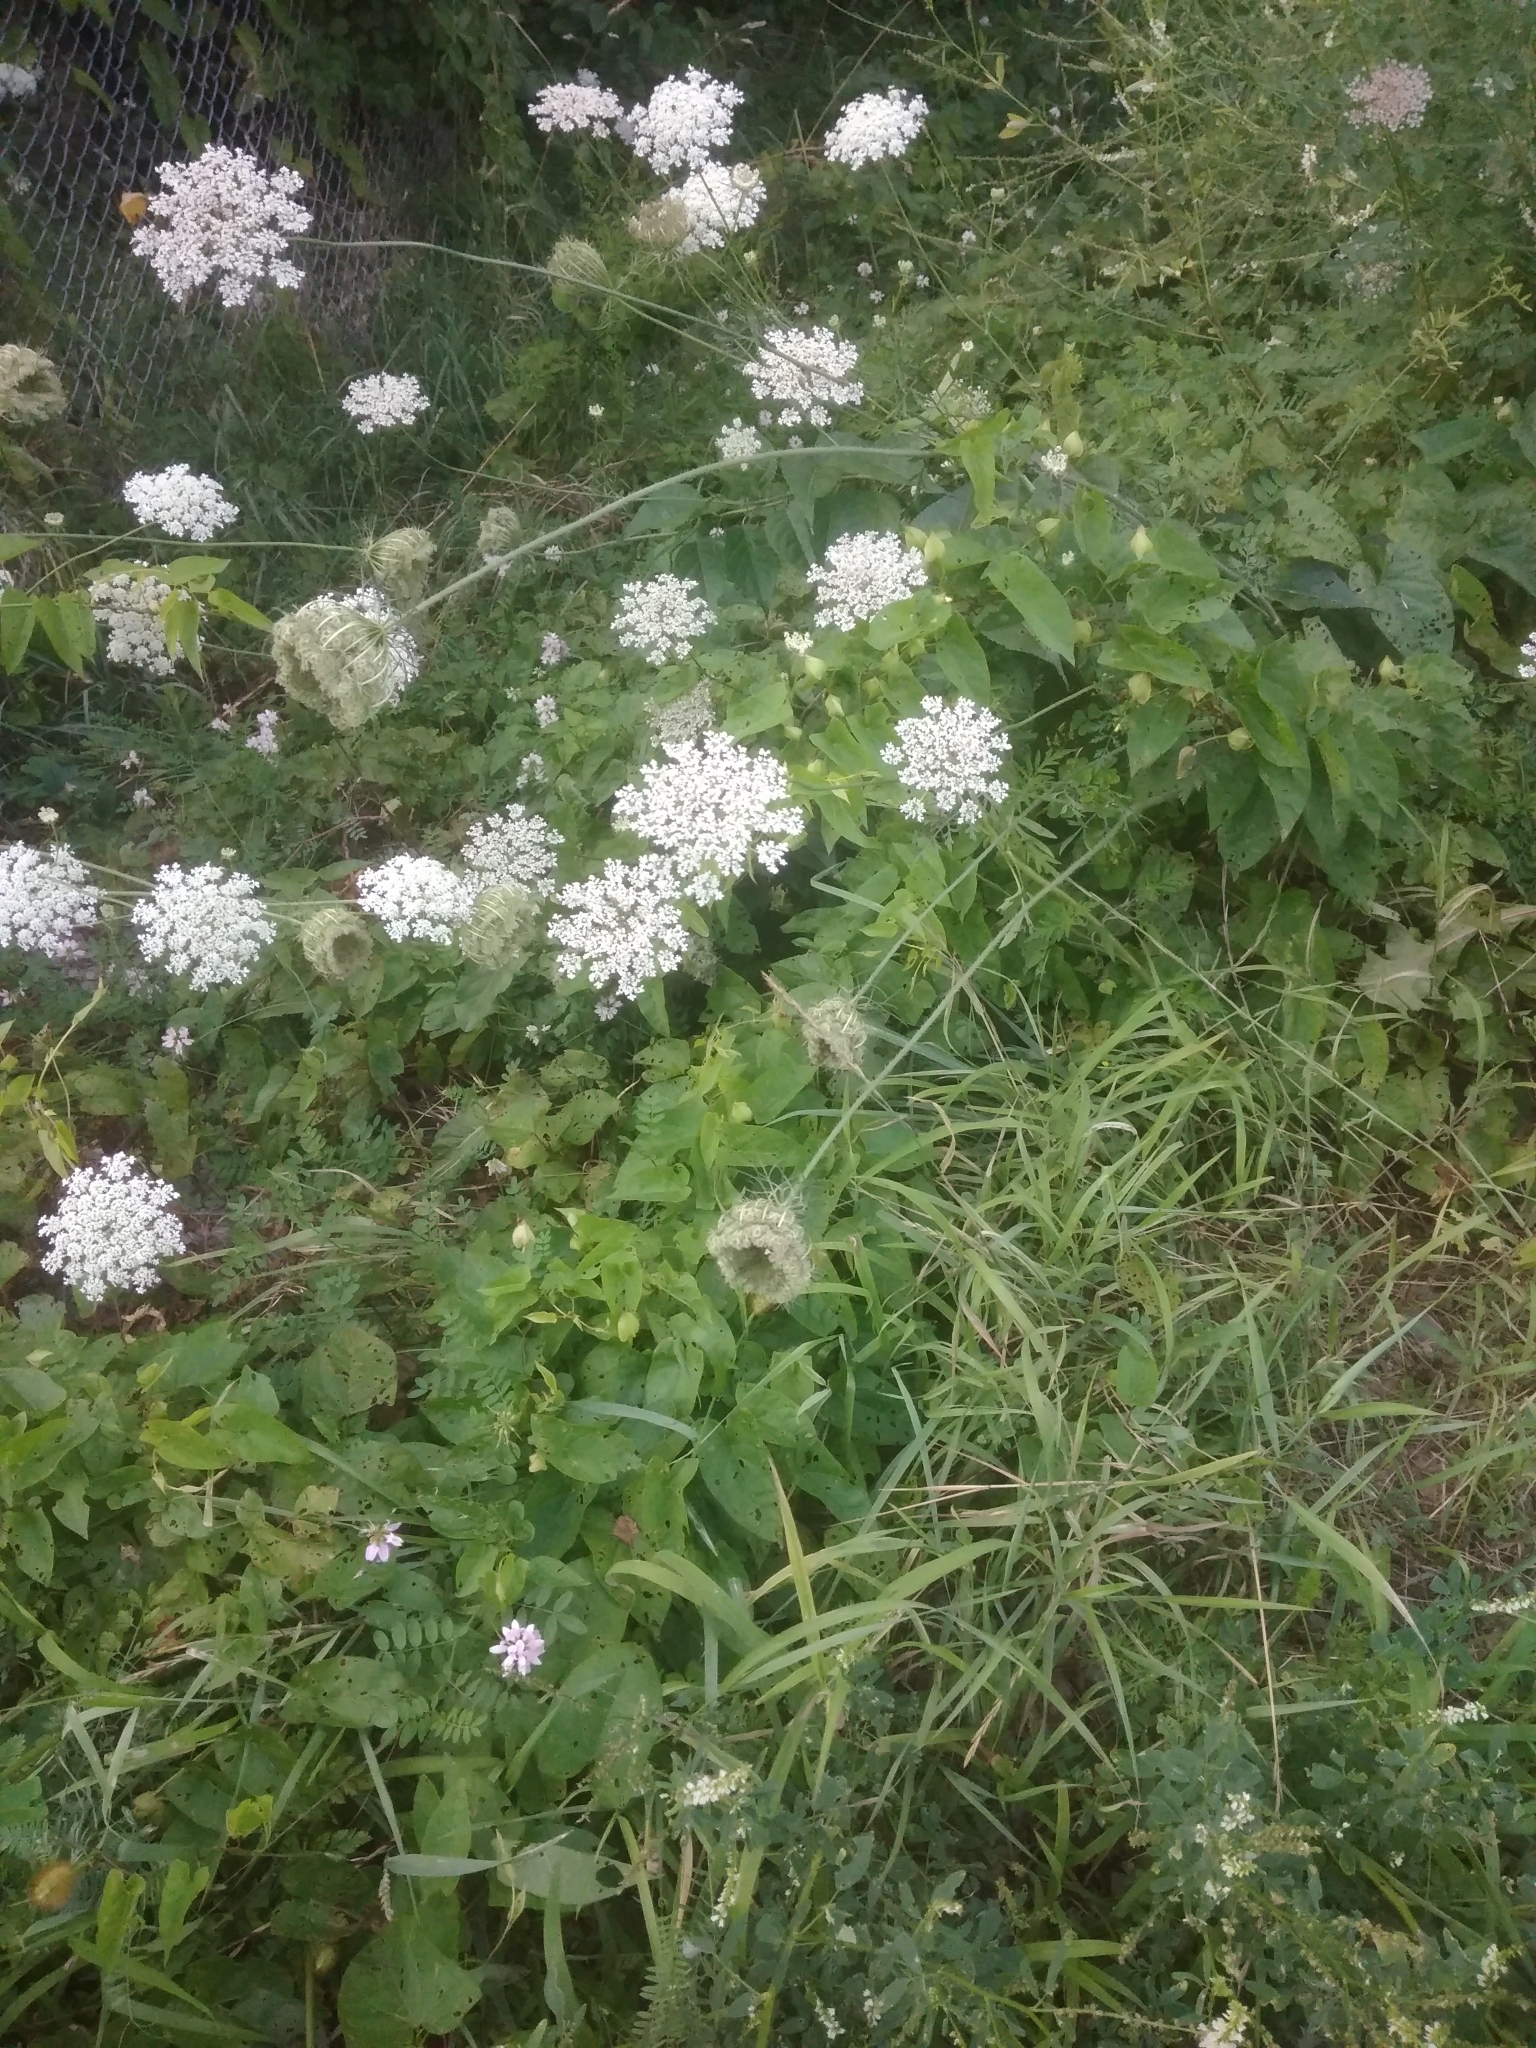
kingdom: Plantae
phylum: Tracheophyta
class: Magnoliopsida
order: Apiales
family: Apiaceae
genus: Daucus
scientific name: Daucus carota
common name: Wild carrot
